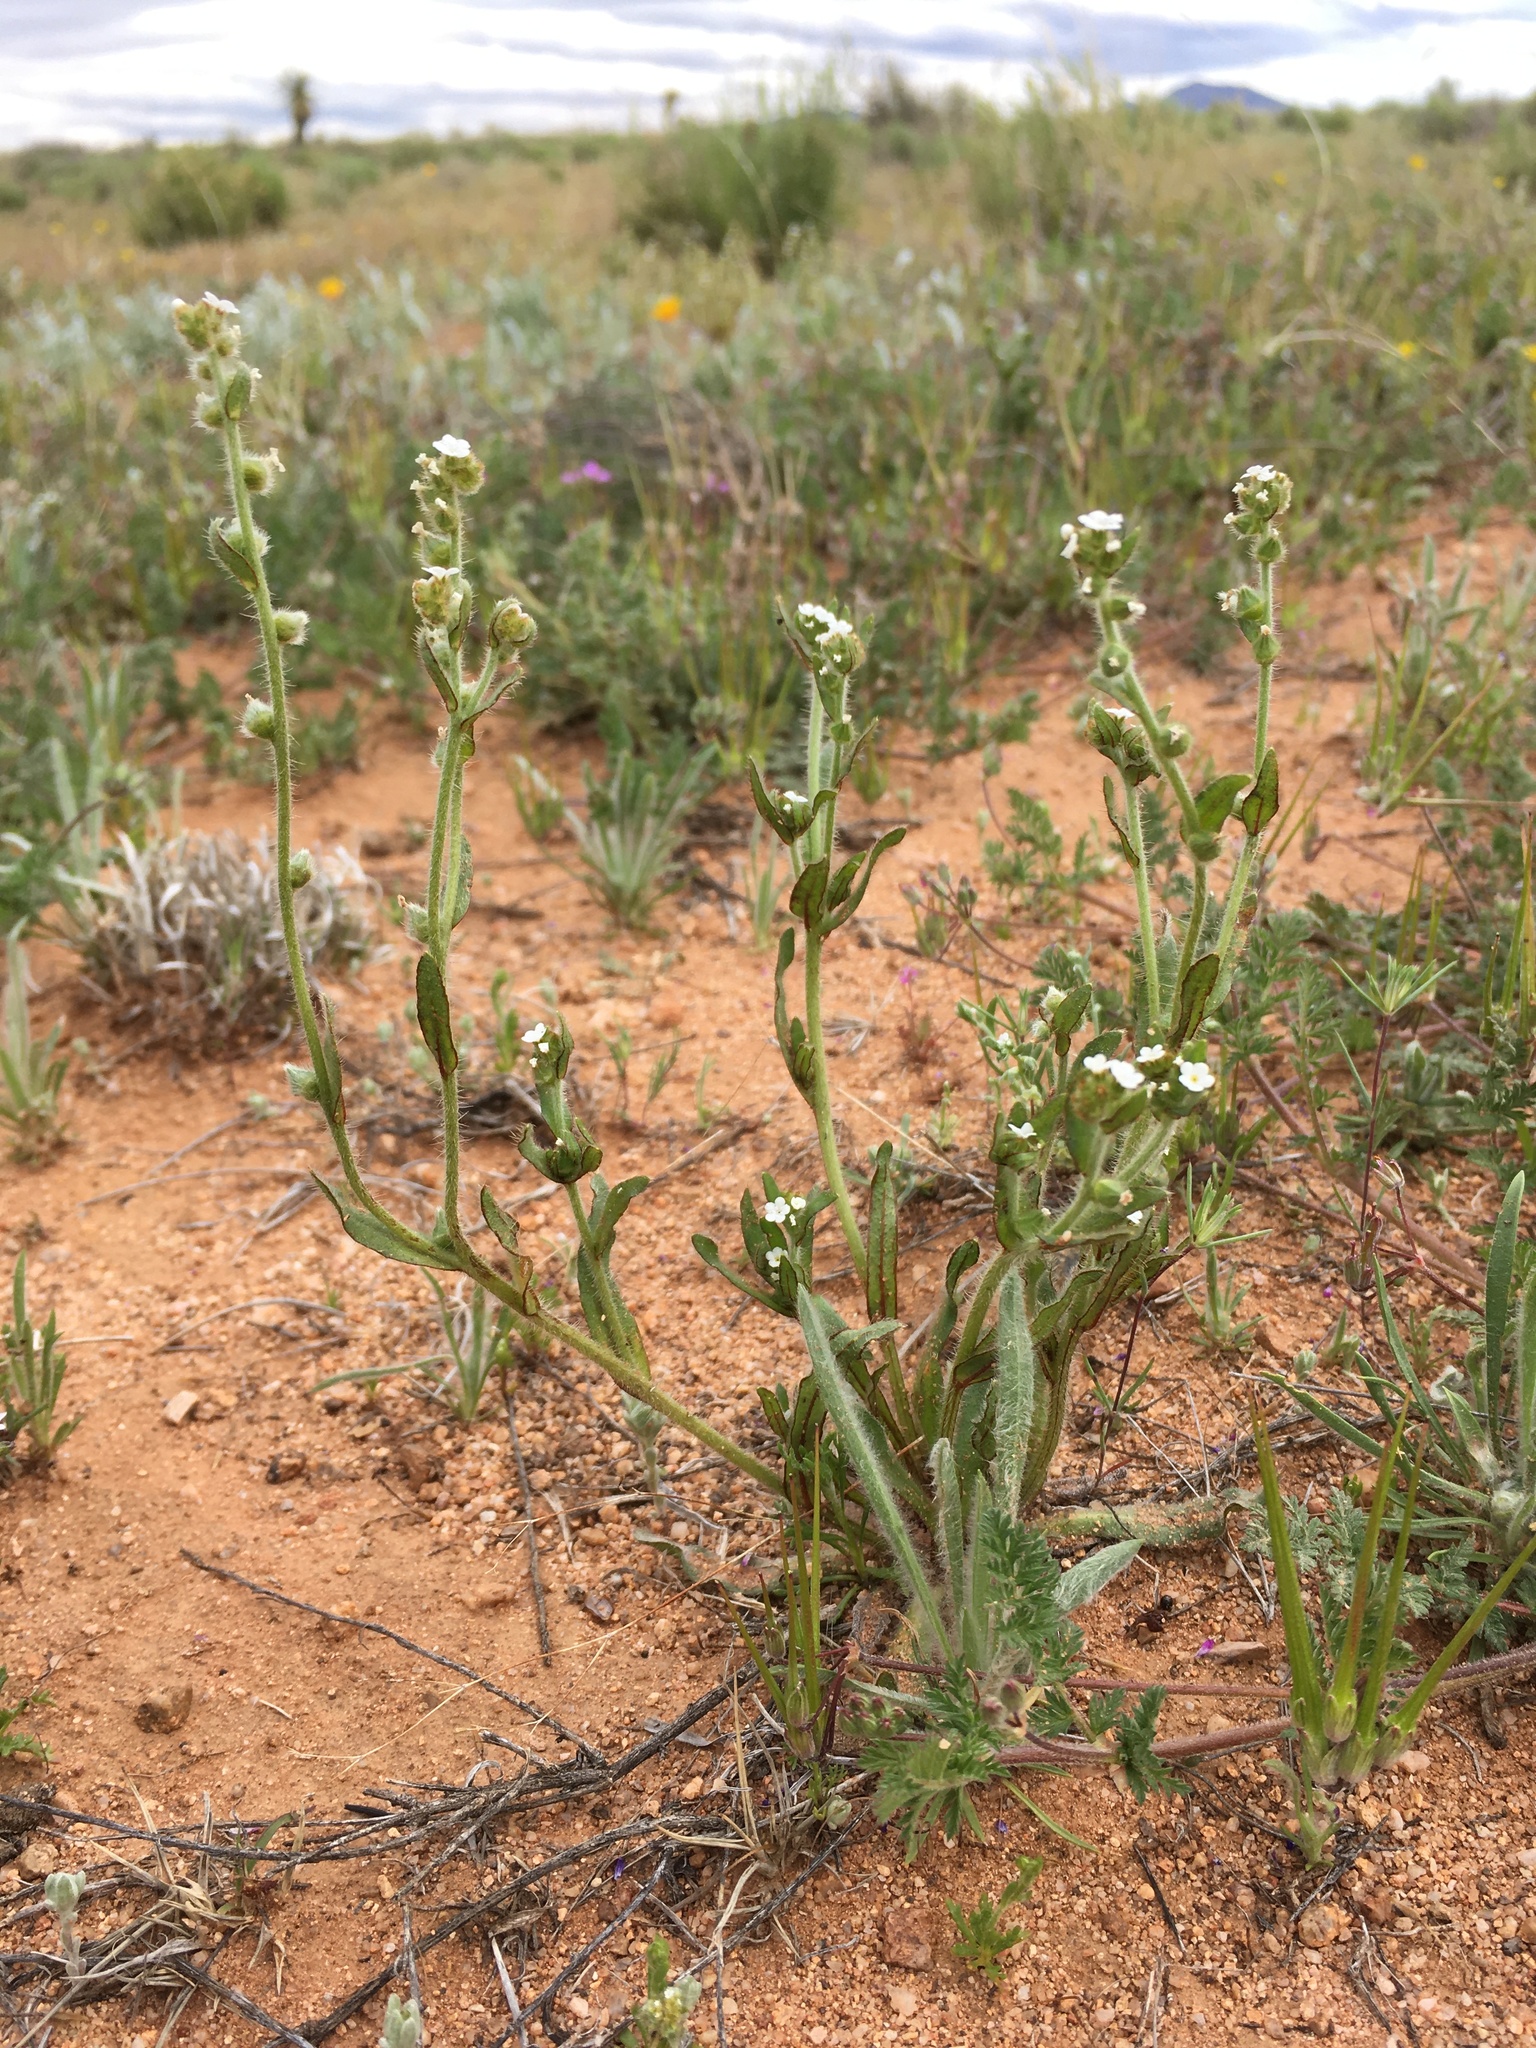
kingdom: Plantae
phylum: Tracheophyta
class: Magnoliopsida
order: Boraginales
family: Boraginaceae
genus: Plagiobothrys
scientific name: Plagiobothrys arizonicus
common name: Arizona popcorn-flower
